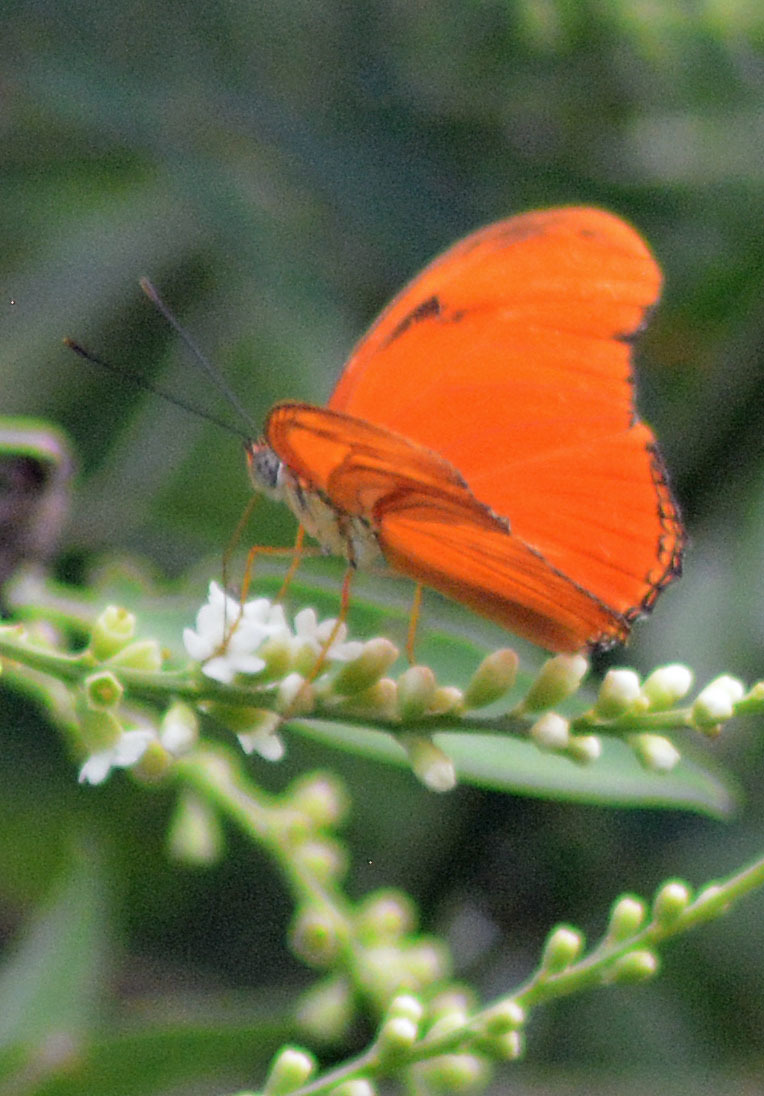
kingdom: Animalia
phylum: Arthropoda
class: Insecta
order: Lepidoptera
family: Nymphalidae
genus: Dryas
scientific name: Dryas iulia
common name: Flambeau
